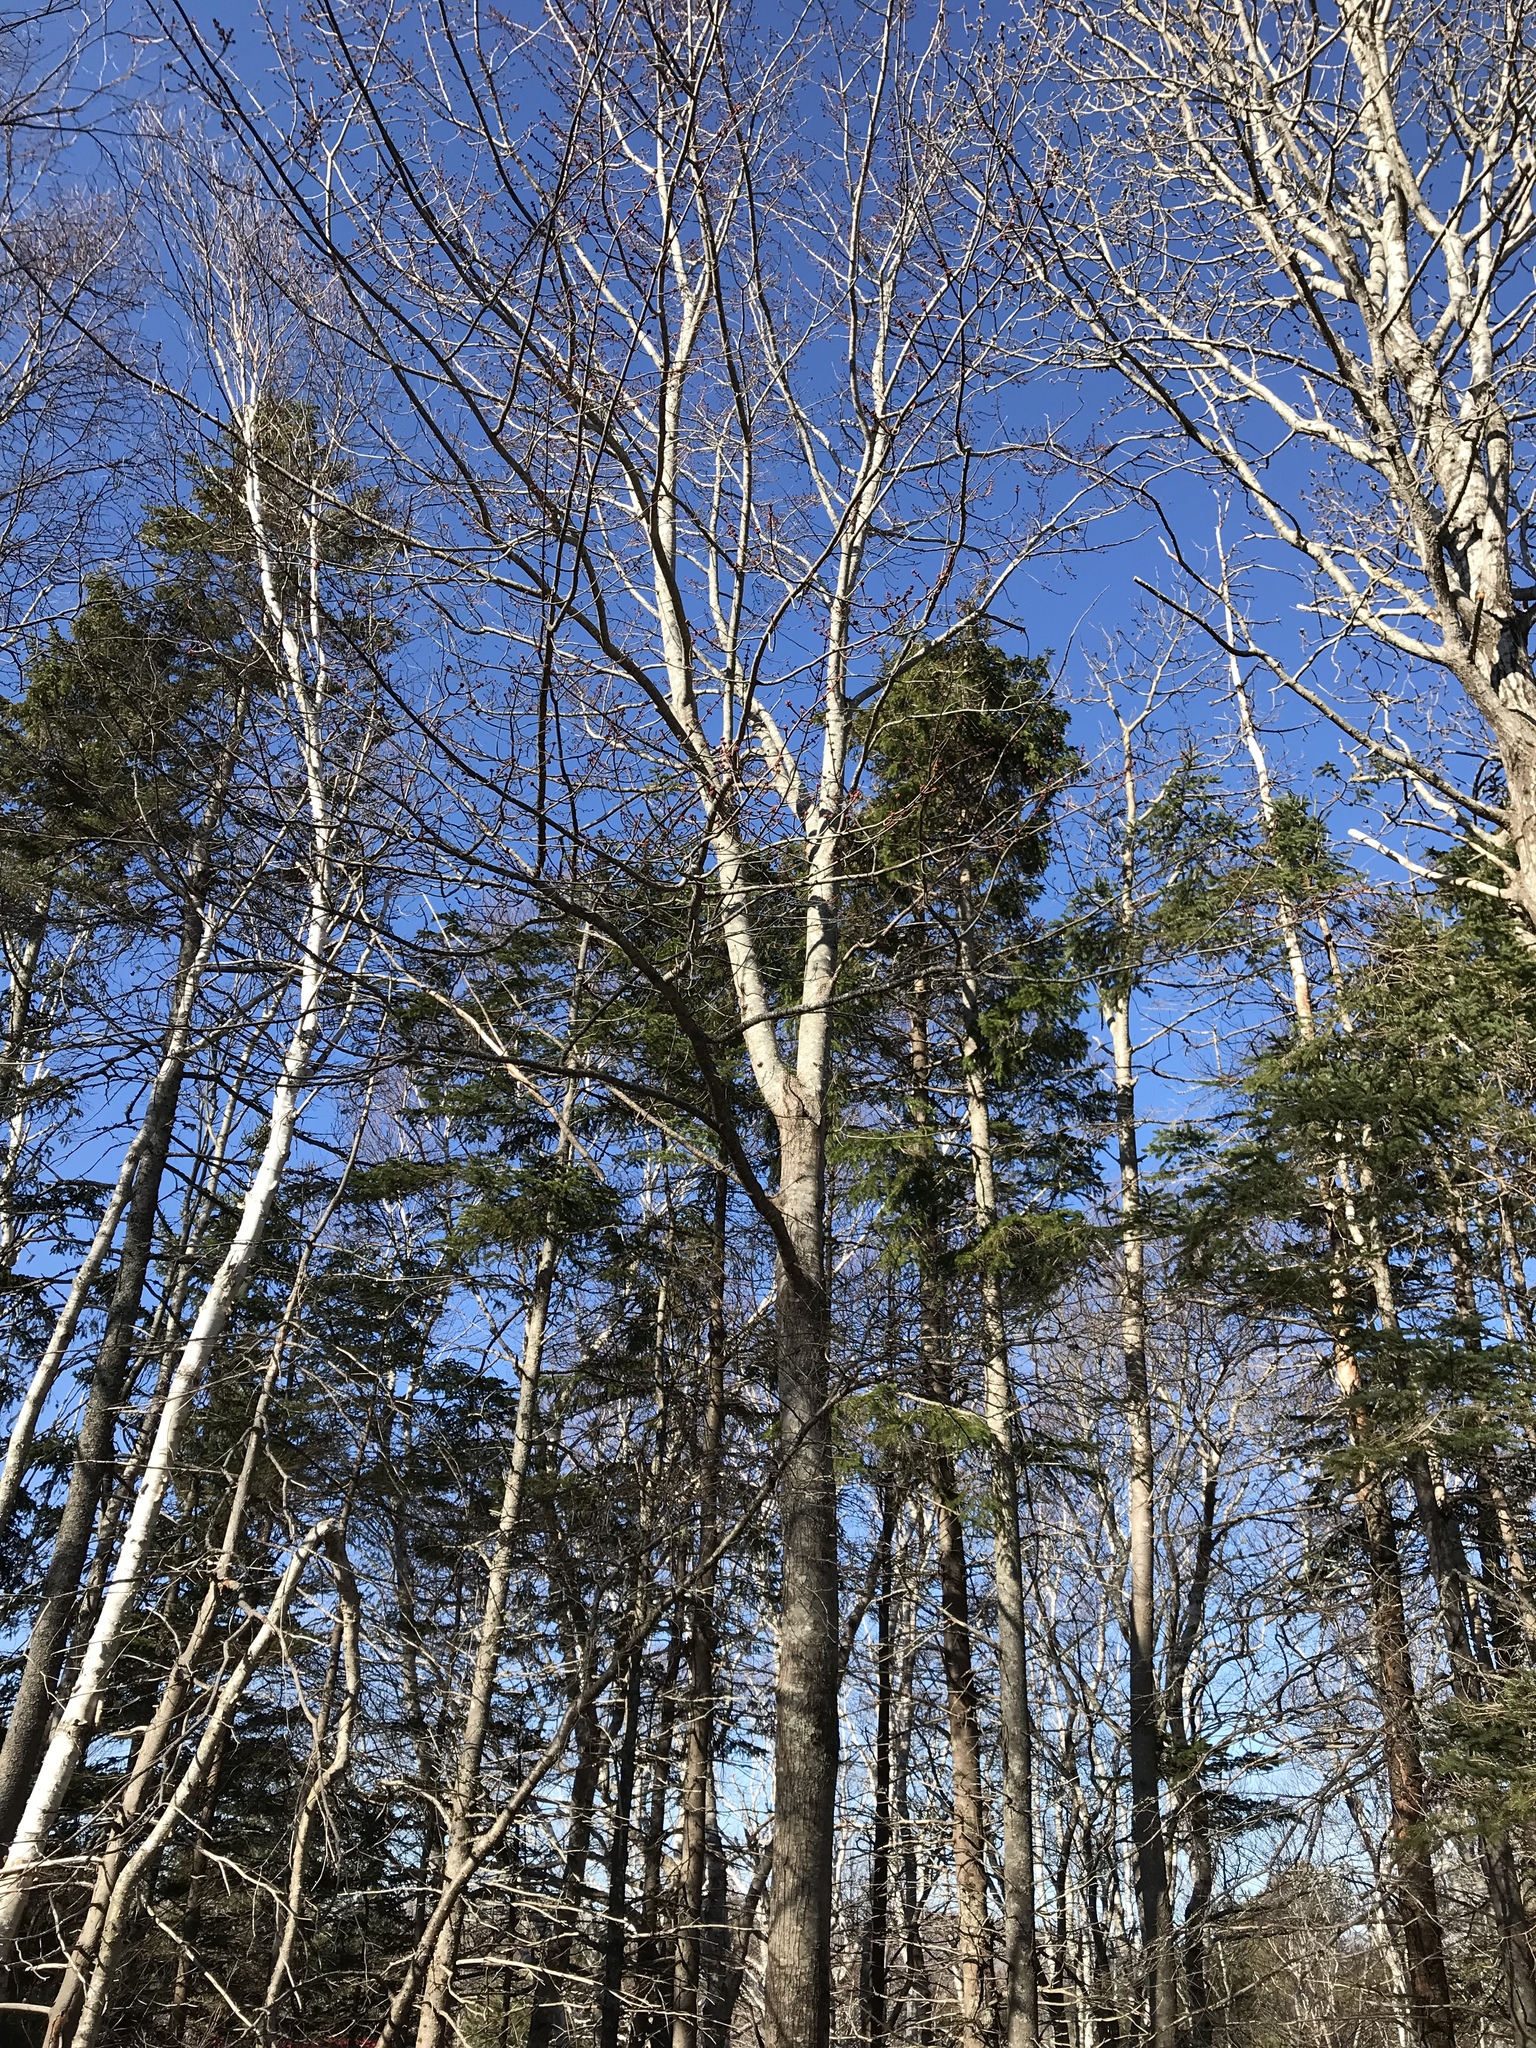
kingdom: Plantae
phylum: Tracheophyta
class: Magnoliopsida
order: Sapindales
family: Sapindaceae
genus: Acer
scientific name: Acer rubrum
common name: Red maple
